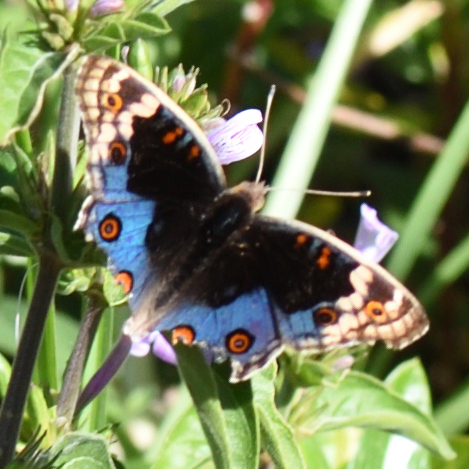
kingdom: Animalia
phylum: Arthropoda
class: Insecta
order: Lepidoptera
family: Nymphalidae
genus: Junonia
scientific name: Junonia orithya
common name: Blue pansy
